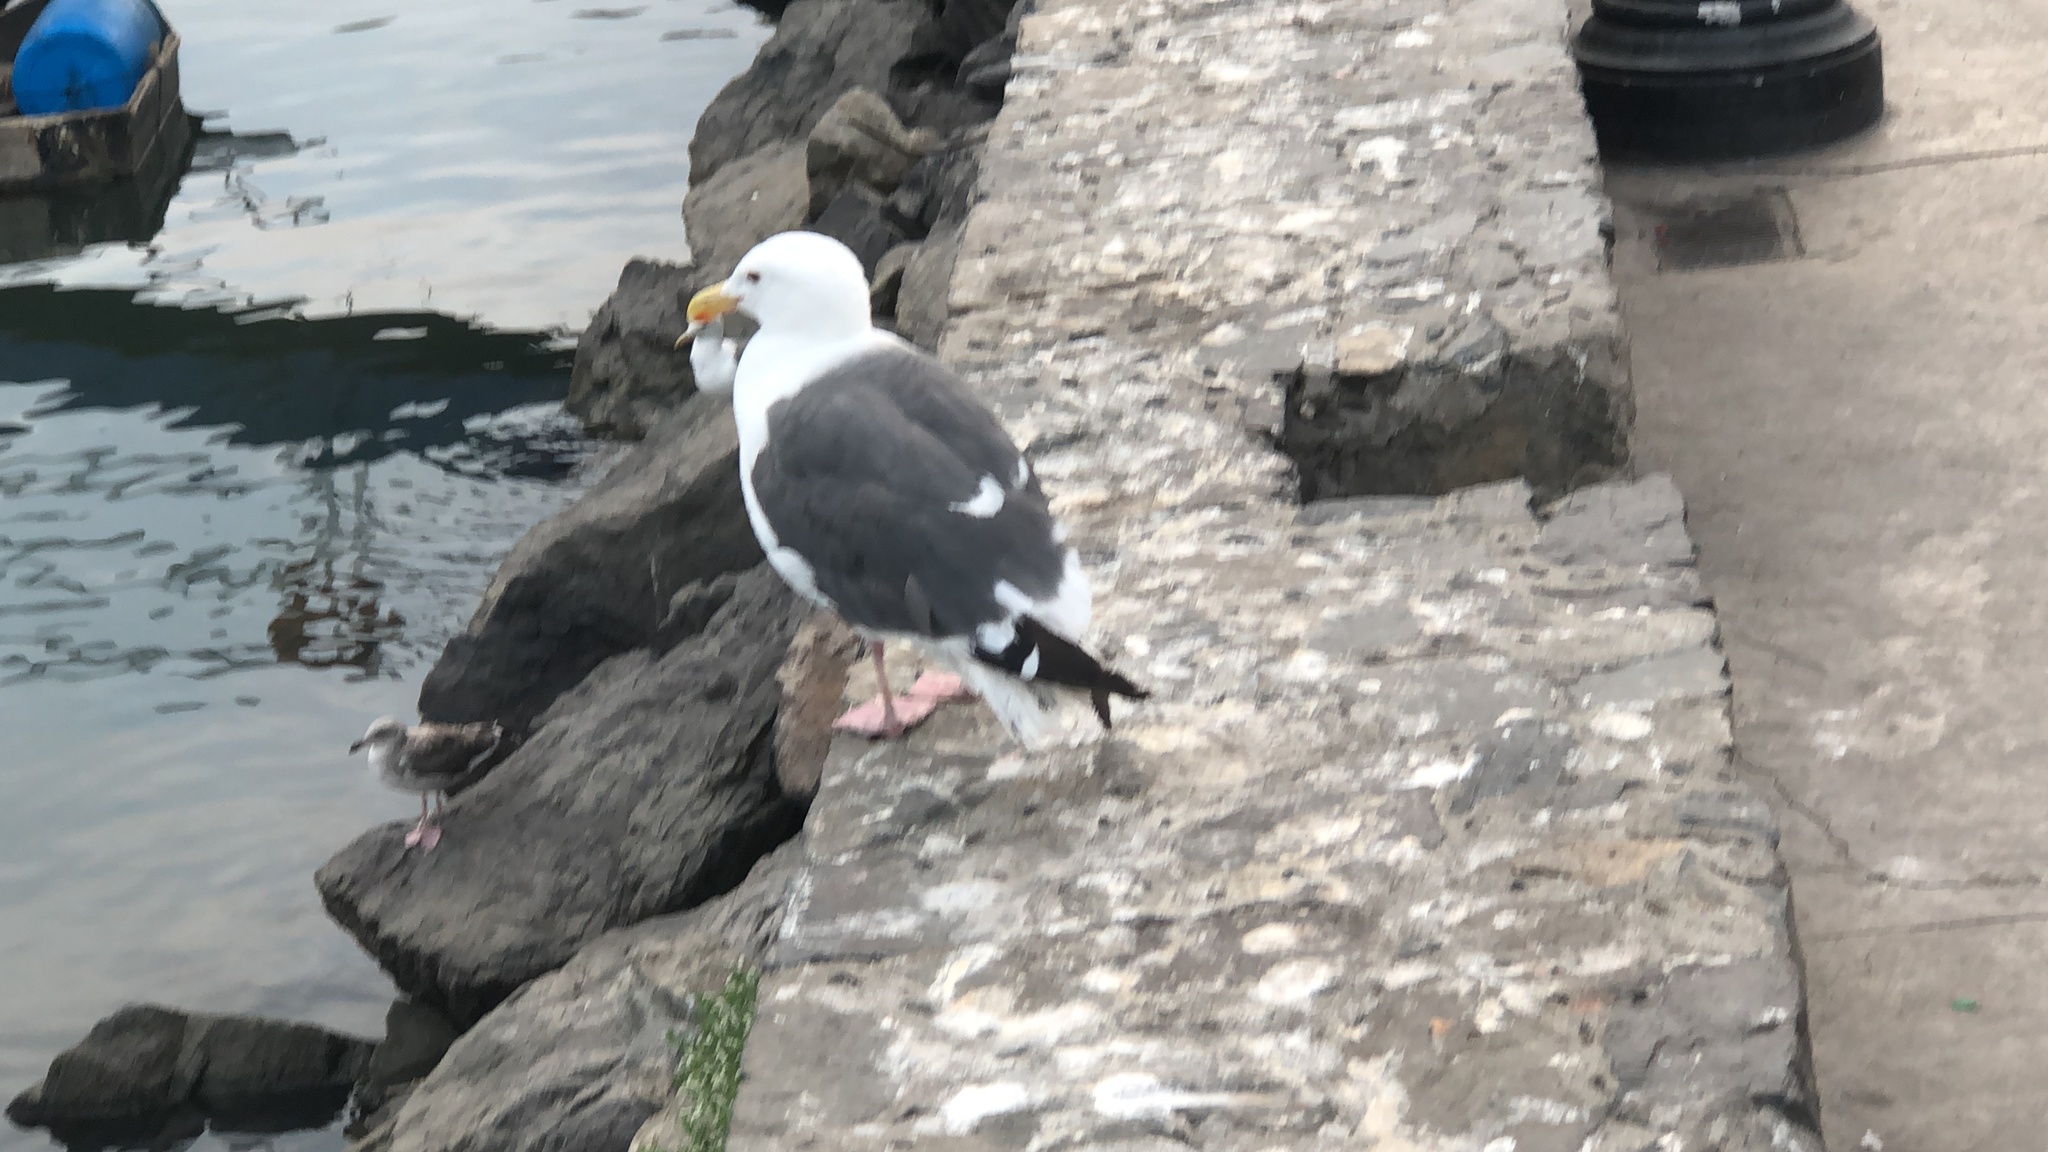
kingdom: Animalia
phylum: Chordata
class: Aves
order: Charadriiformes
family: Laridae
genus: Larus
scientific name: Larus occidentalis
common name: Western gull
